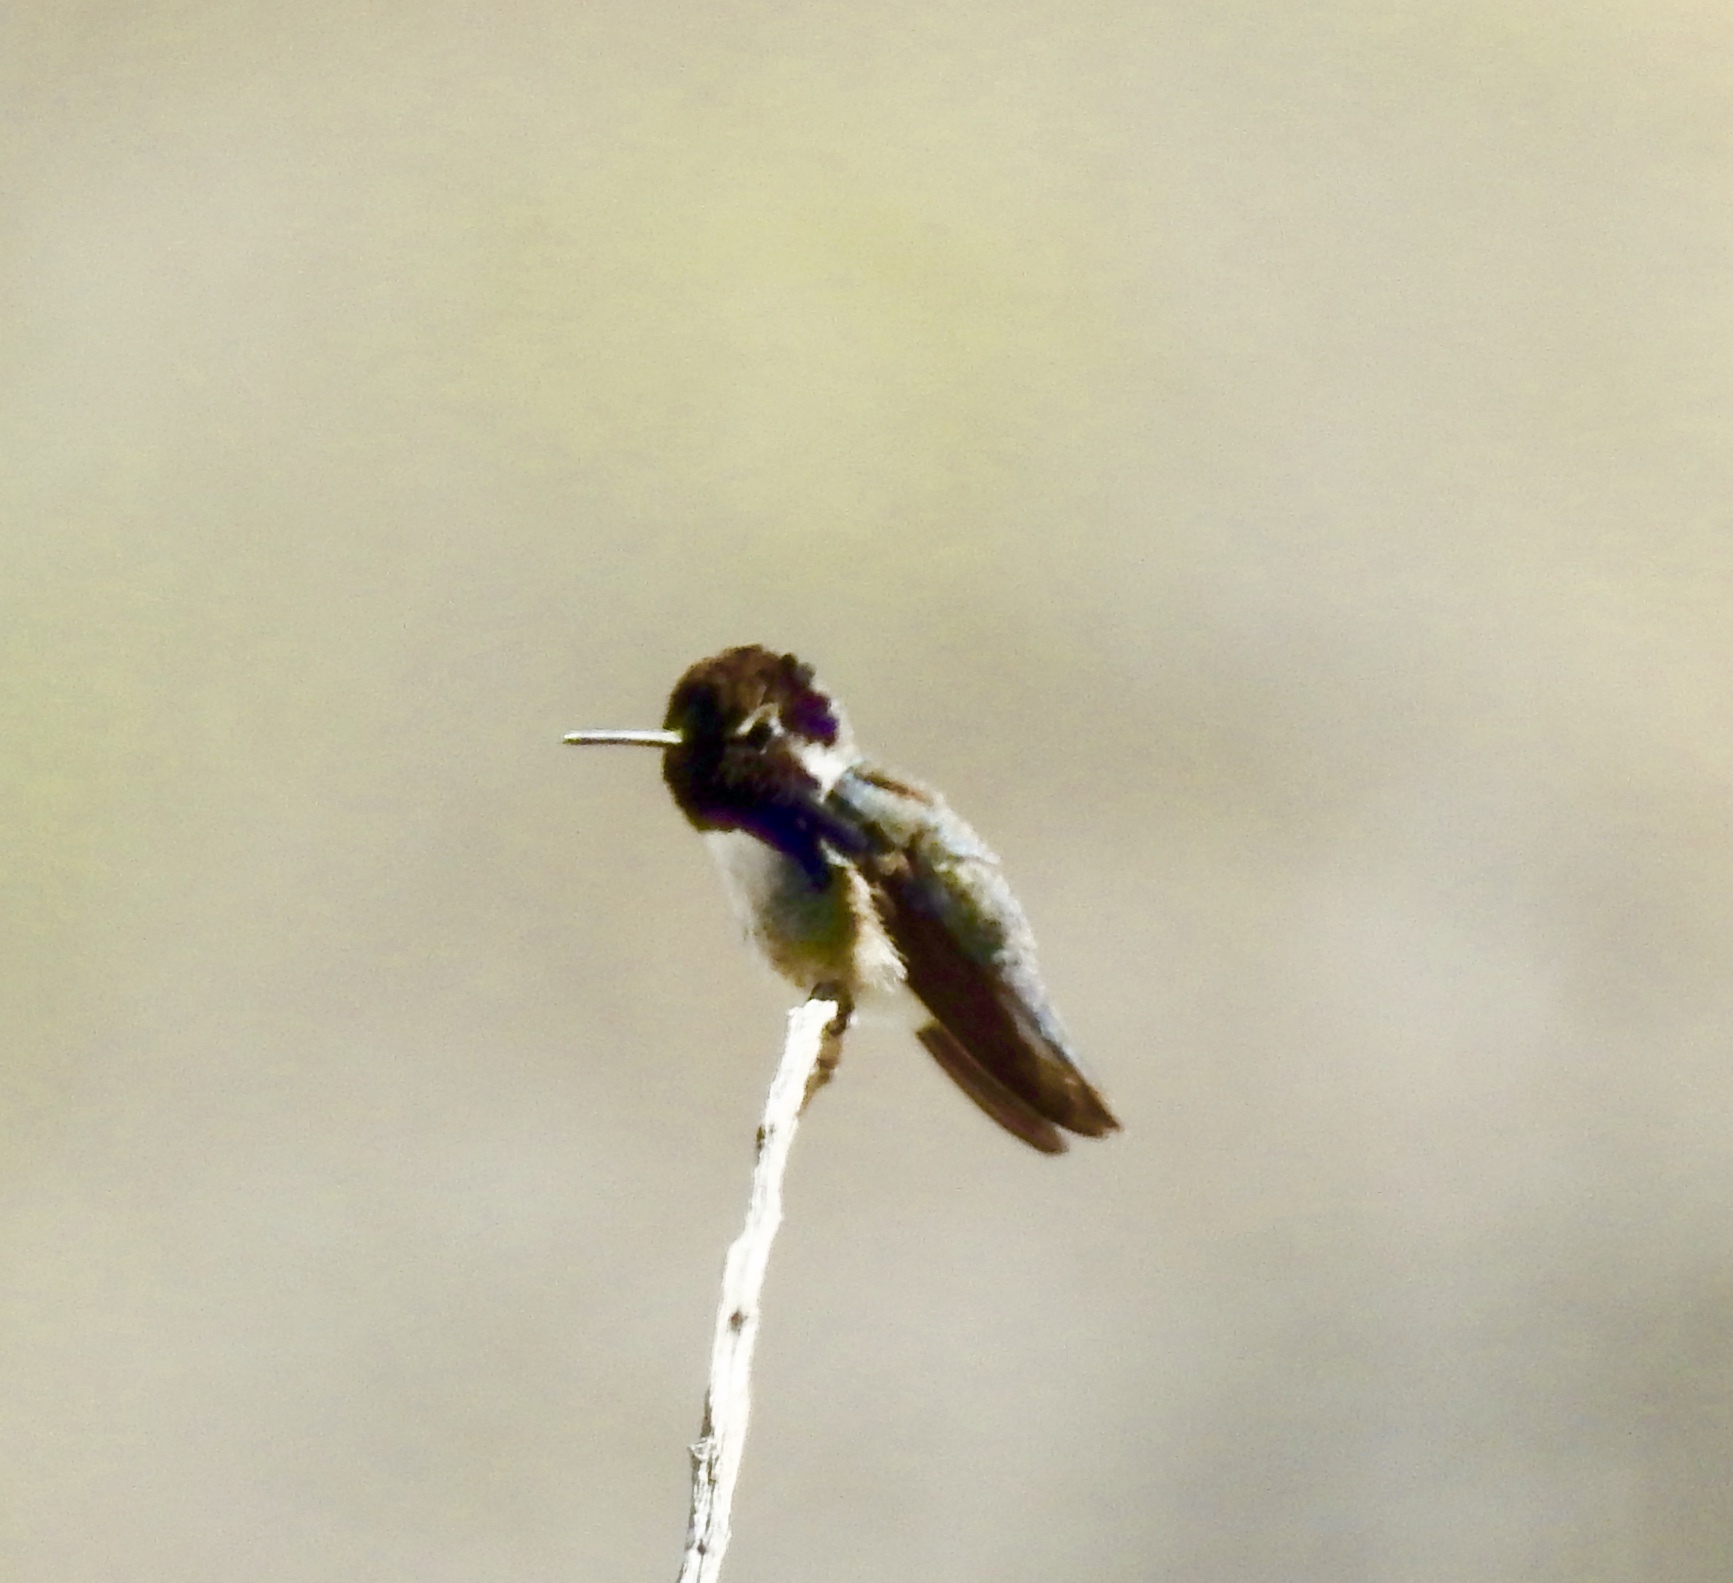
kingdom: Animalia
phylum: Chordata
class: Aves
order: Apodiformes
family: Trochilidae
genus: Calypte
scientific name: Calypte costae
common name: Costa's hummingbird
